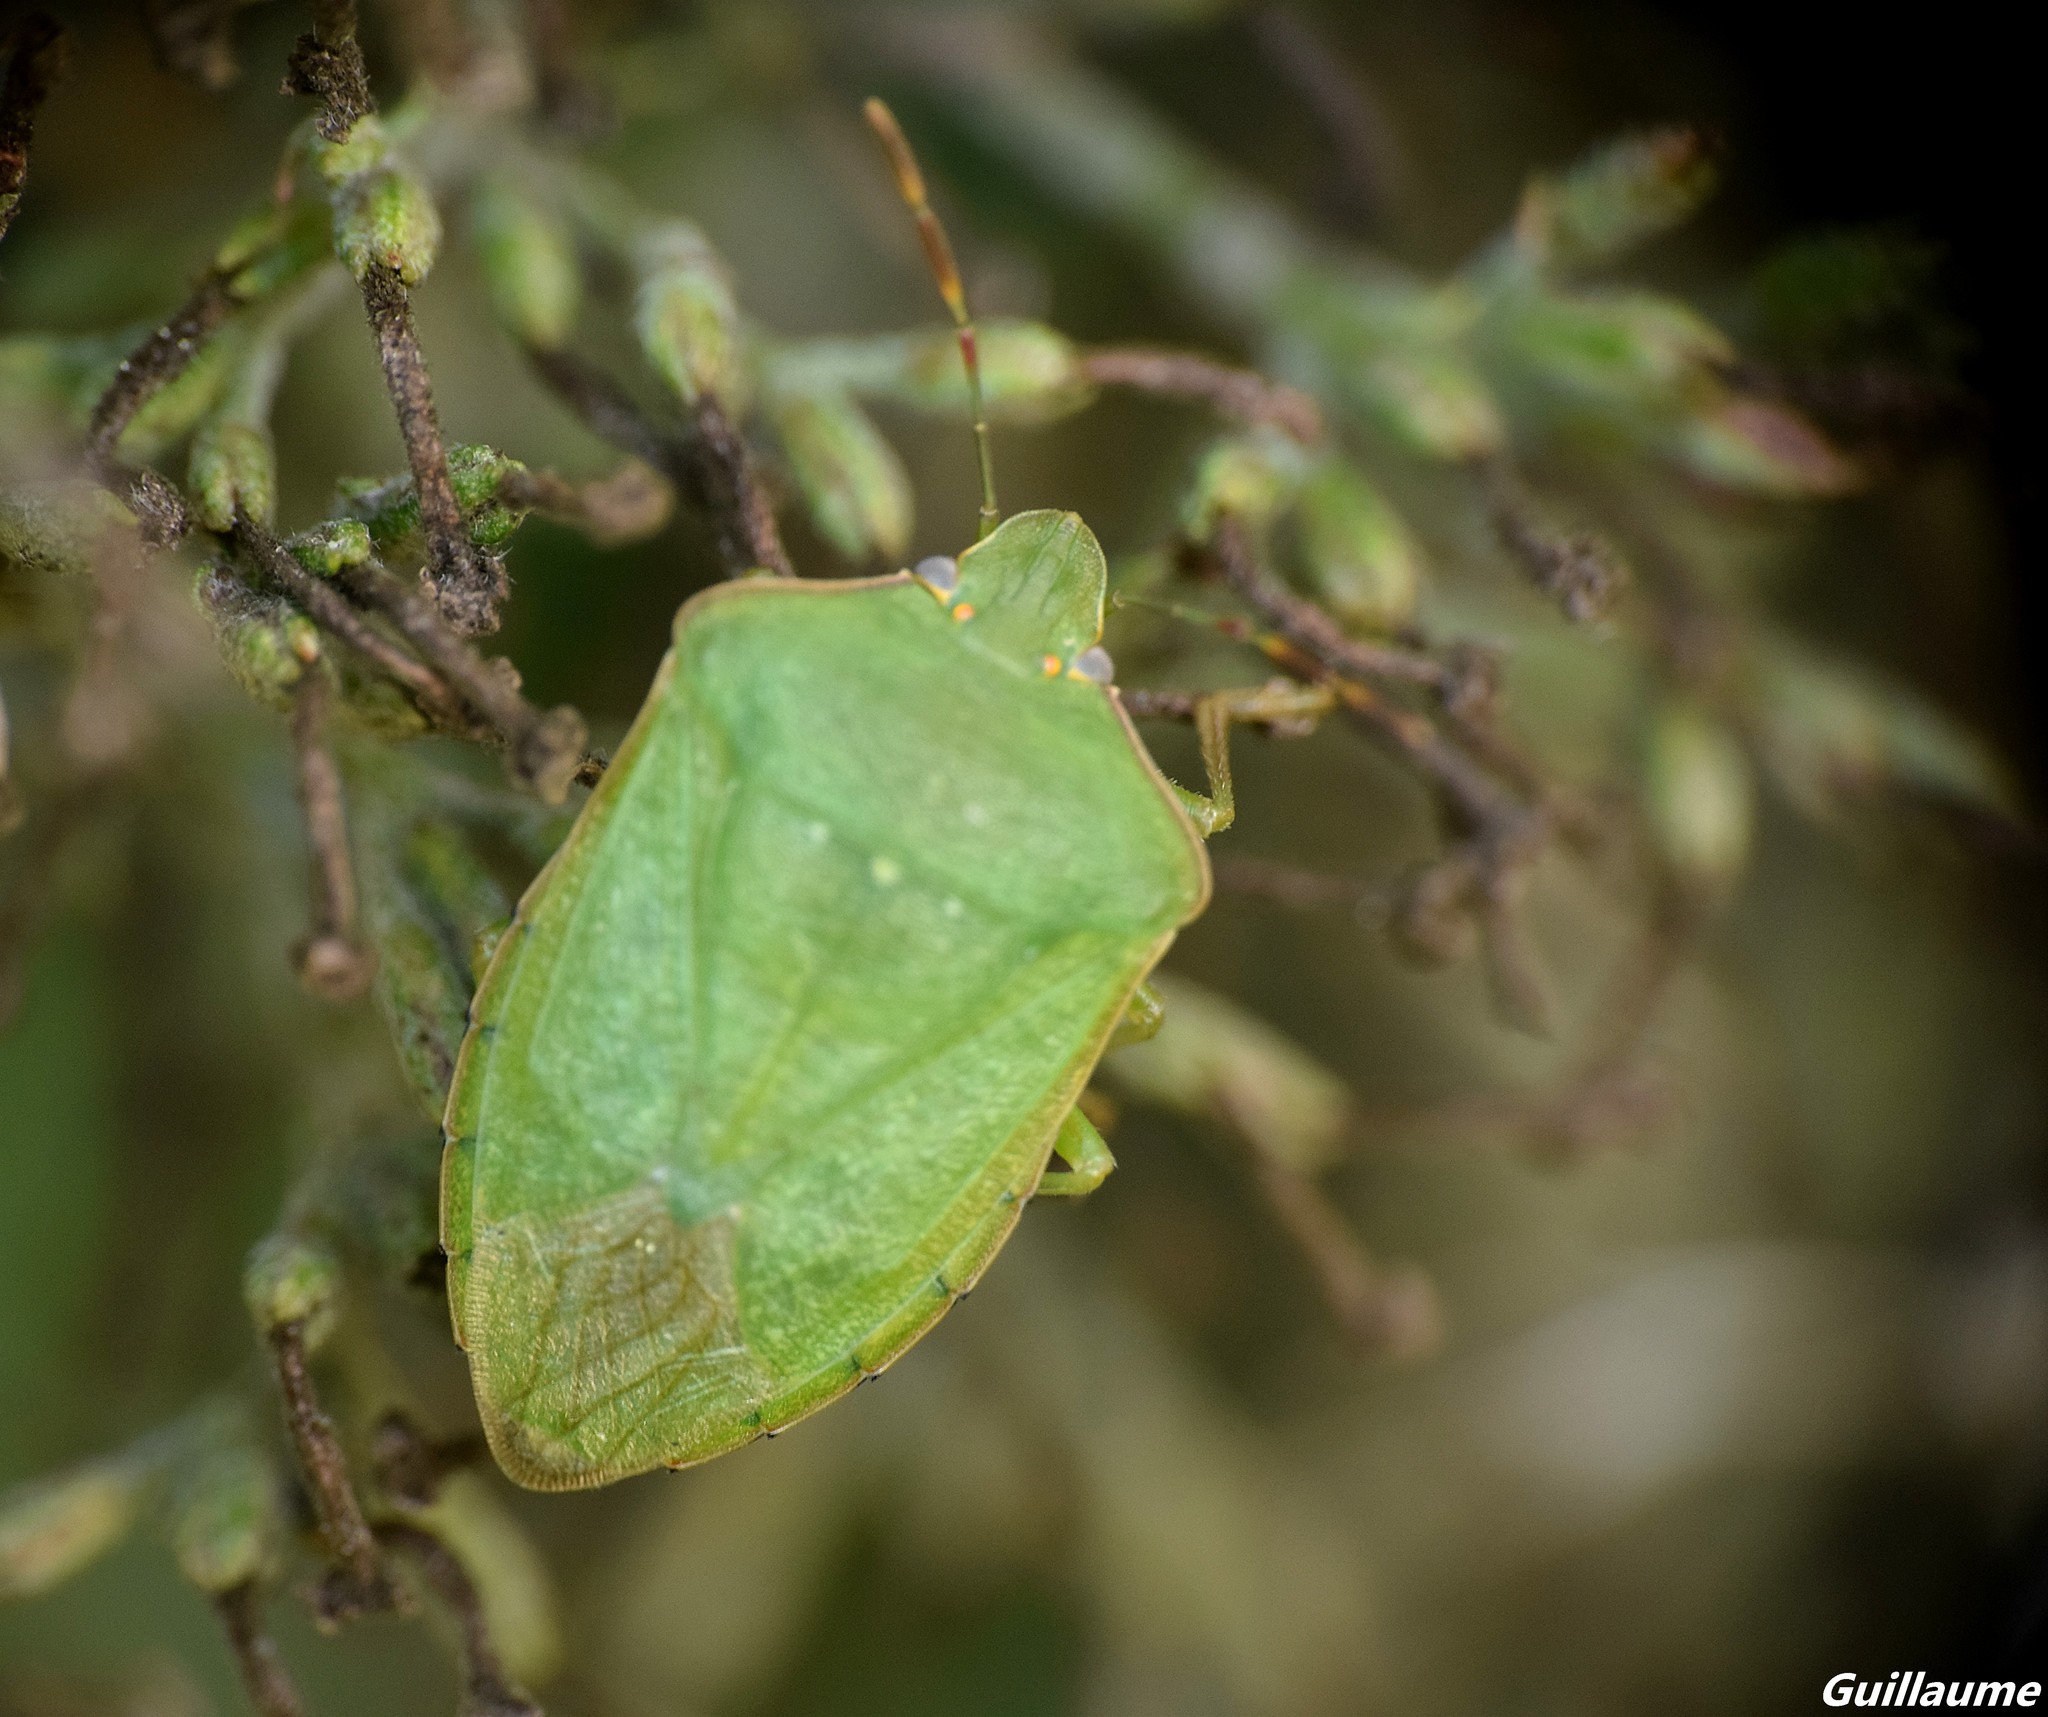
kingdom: Animalia
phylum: Arthropoda
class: Insecta
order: Hemiptera
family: Pentatomidae
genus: Nezara
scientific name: Nezara viridula
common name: Southern green stink bug
